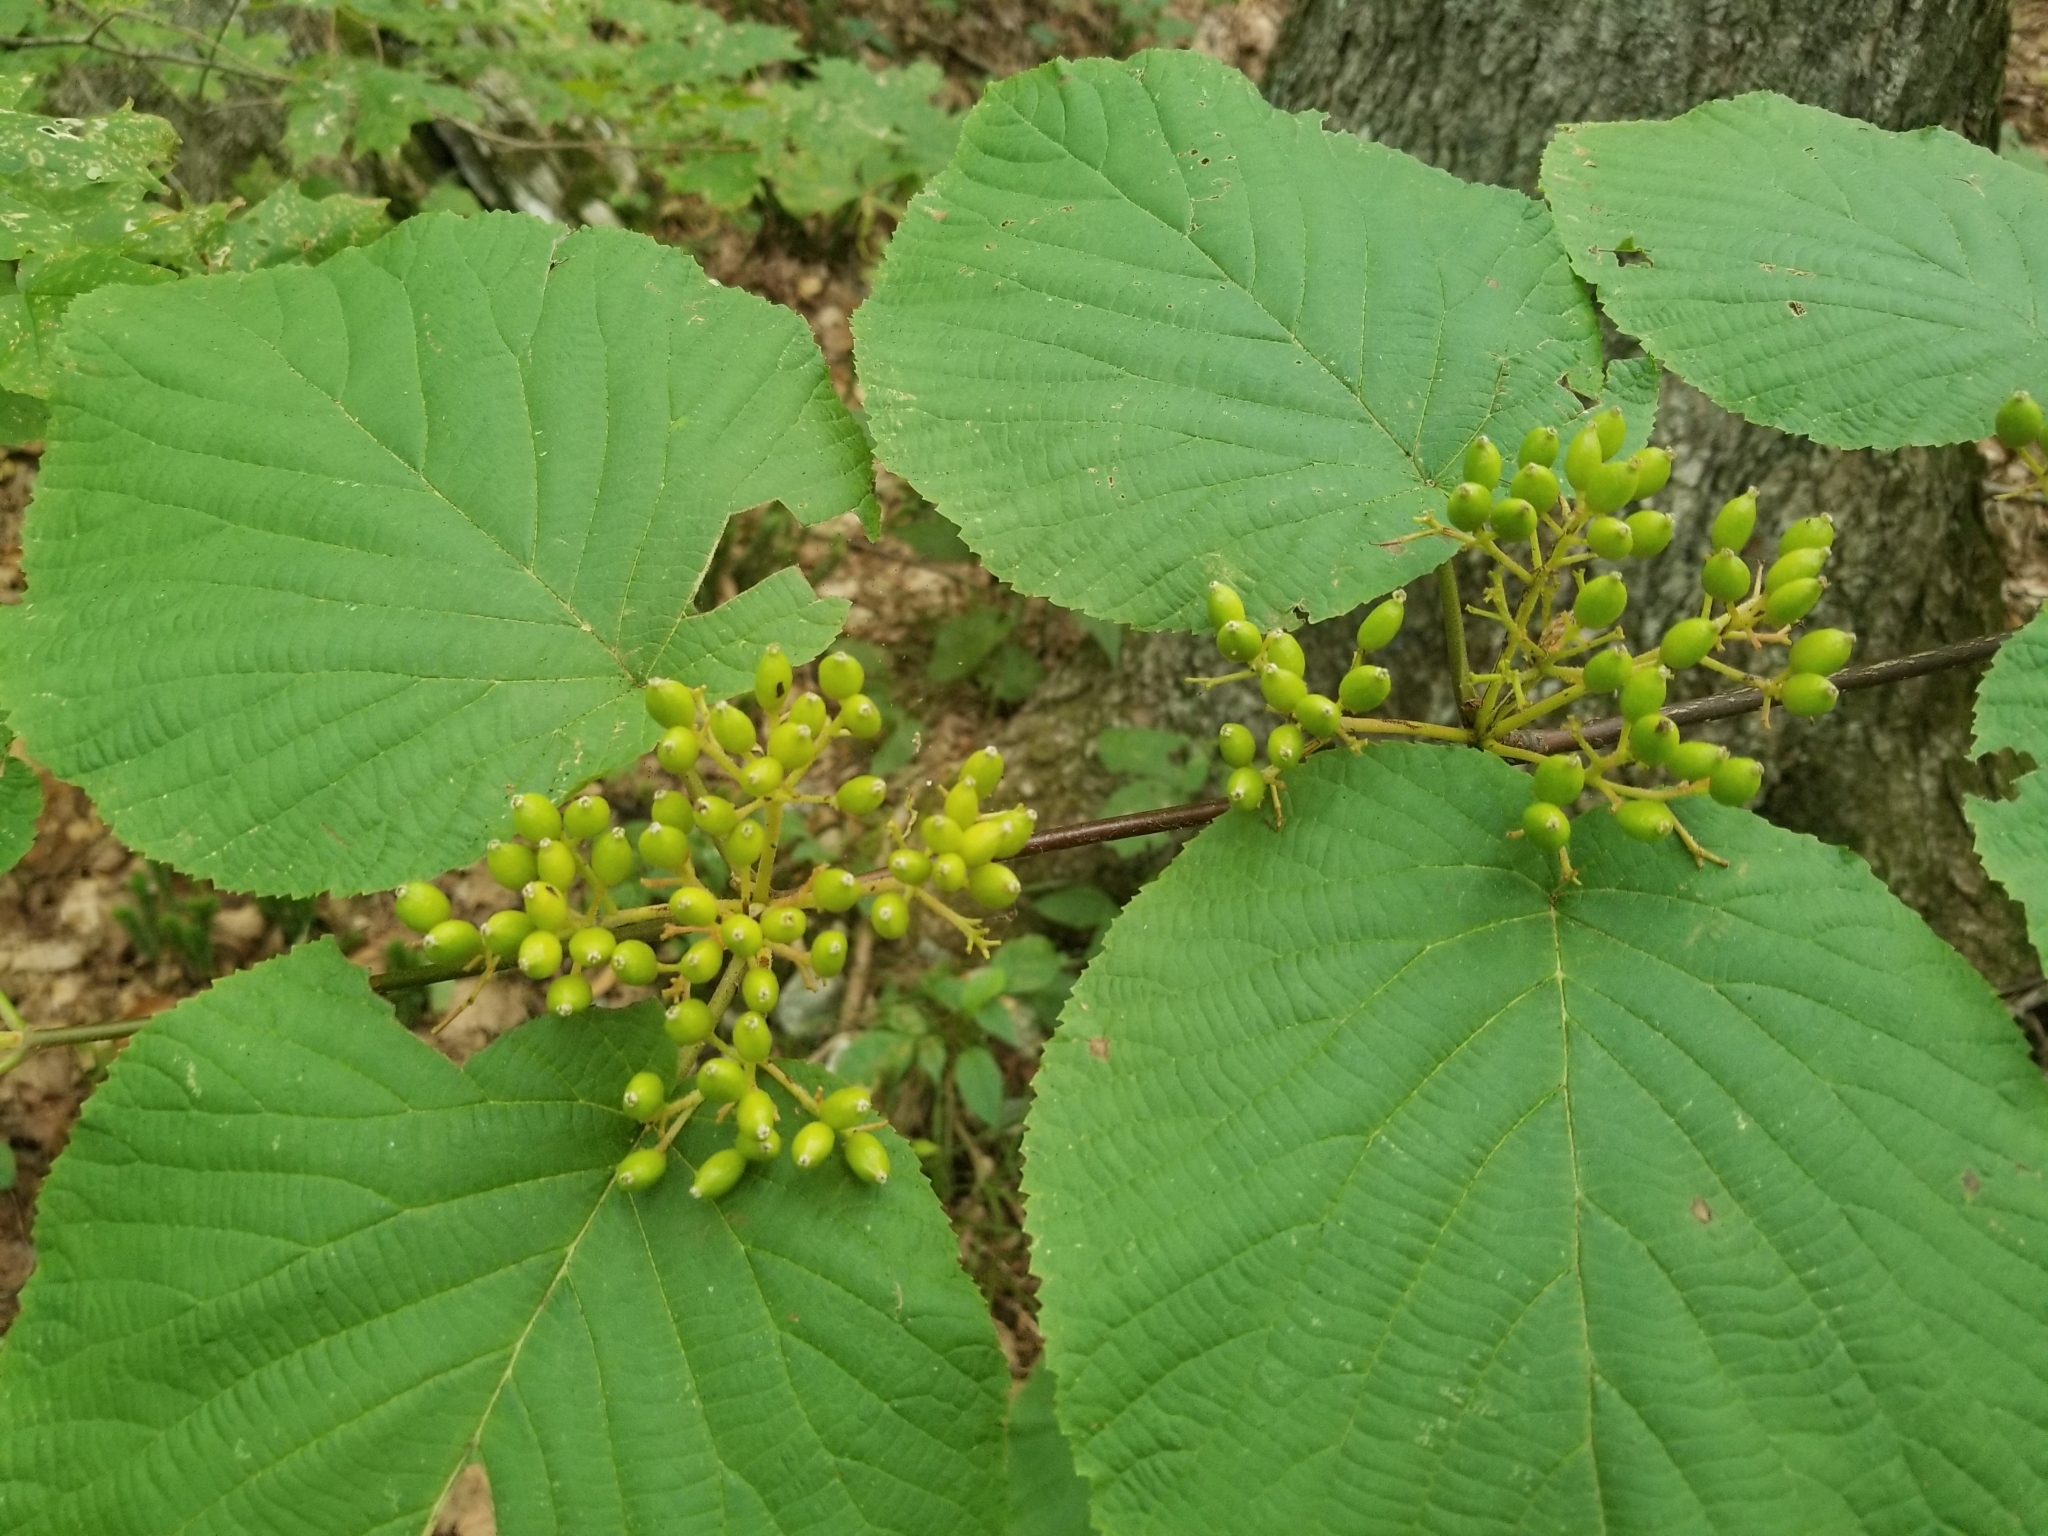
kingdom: Plantae
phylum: Tracheophyta
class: Magnoliopsida
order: Dipsacales
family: Viburnaceae
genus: Viburnum
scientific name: Viburnum lantanoides
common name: Hobblebush
